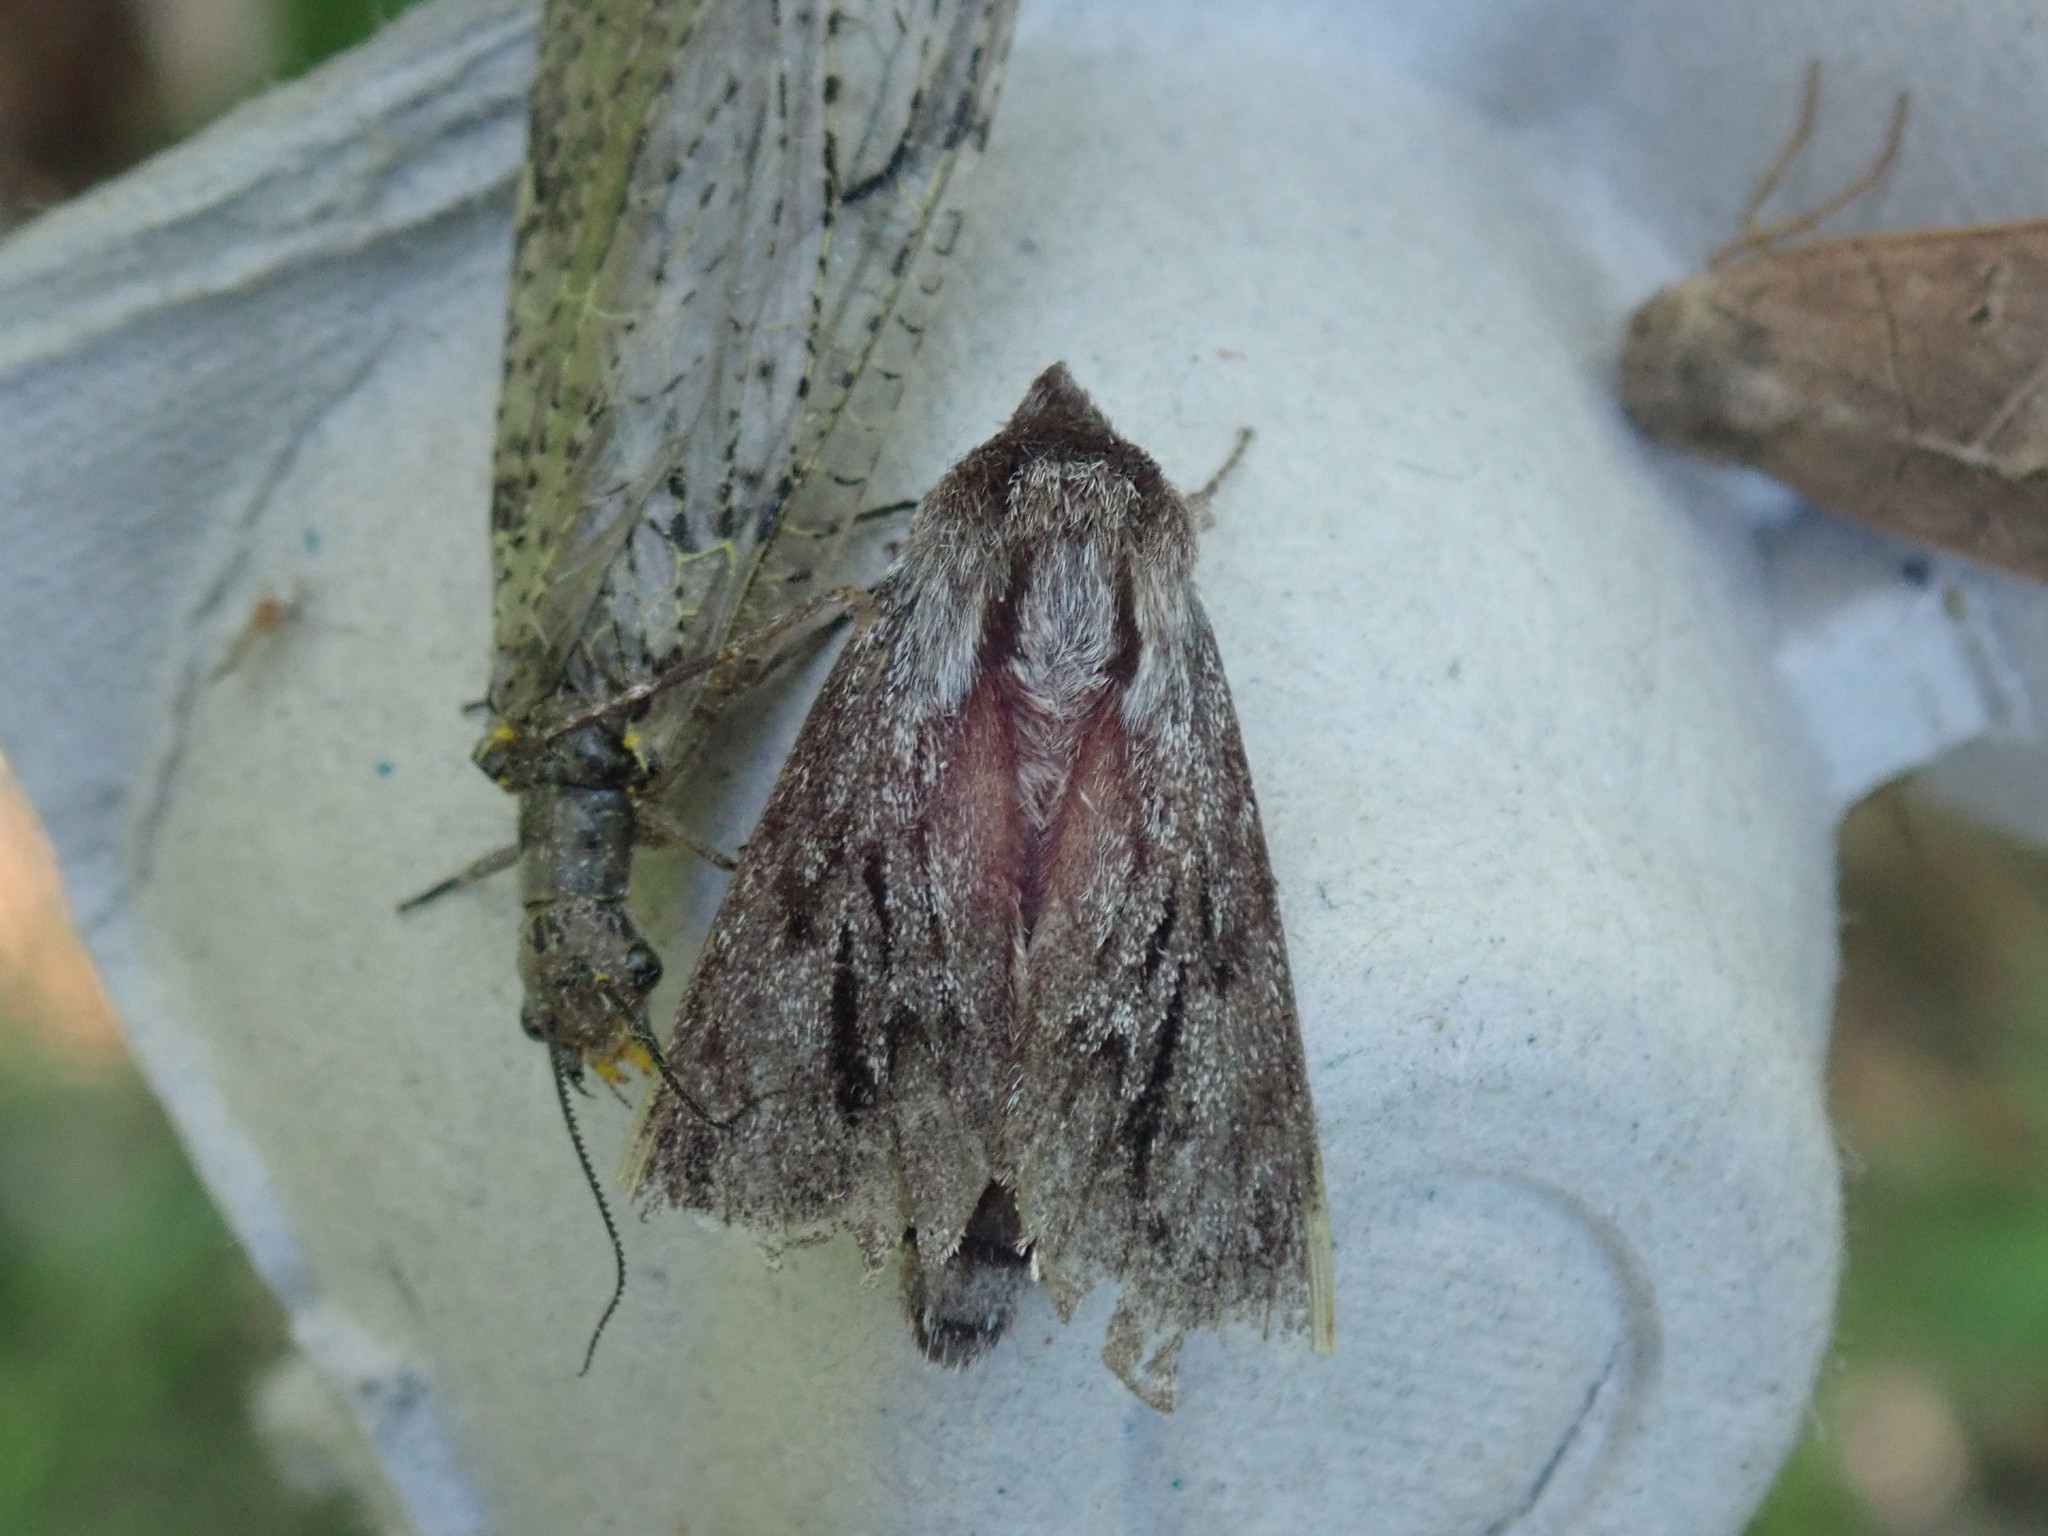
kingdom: Animalia
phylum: Arthropoda
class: Insecta
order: Lepidoptera
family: Sphingidae
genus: Lapara
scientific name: Lapara bombycoides
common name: Northern pine sphinx
